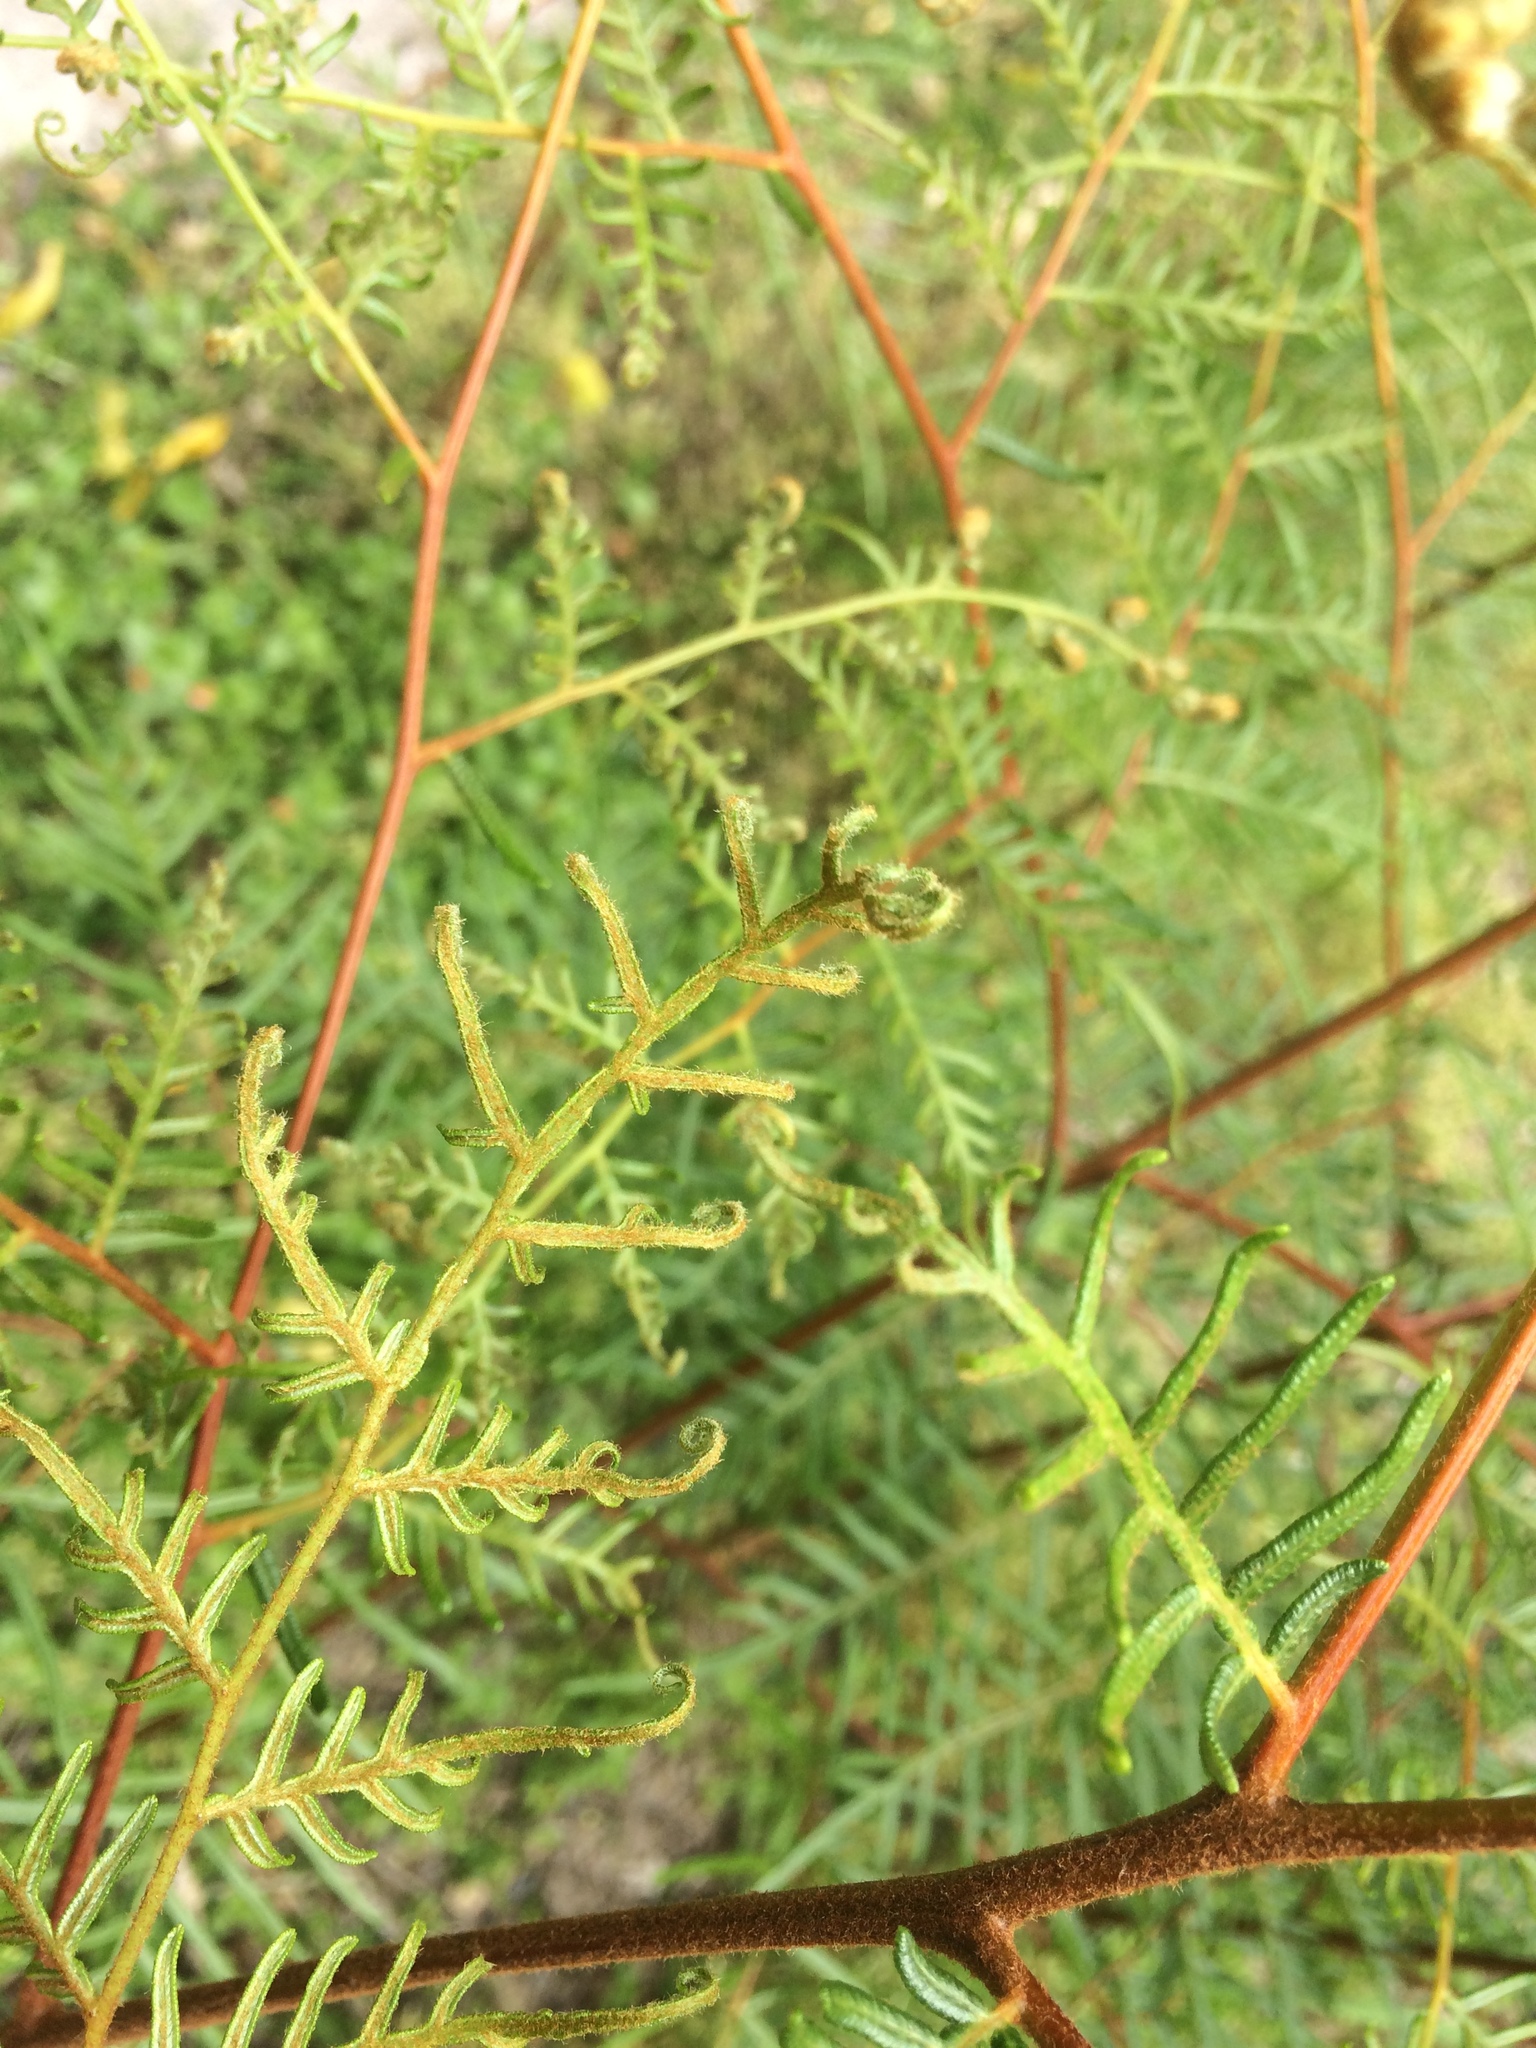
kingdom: Plantae
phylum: Tracheophyta
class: Polypodiopsida
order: Polypodiales
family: Dennstaedtiaceae
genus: Pteridium
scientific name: Pteridium esculentum
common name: Bracken fern
